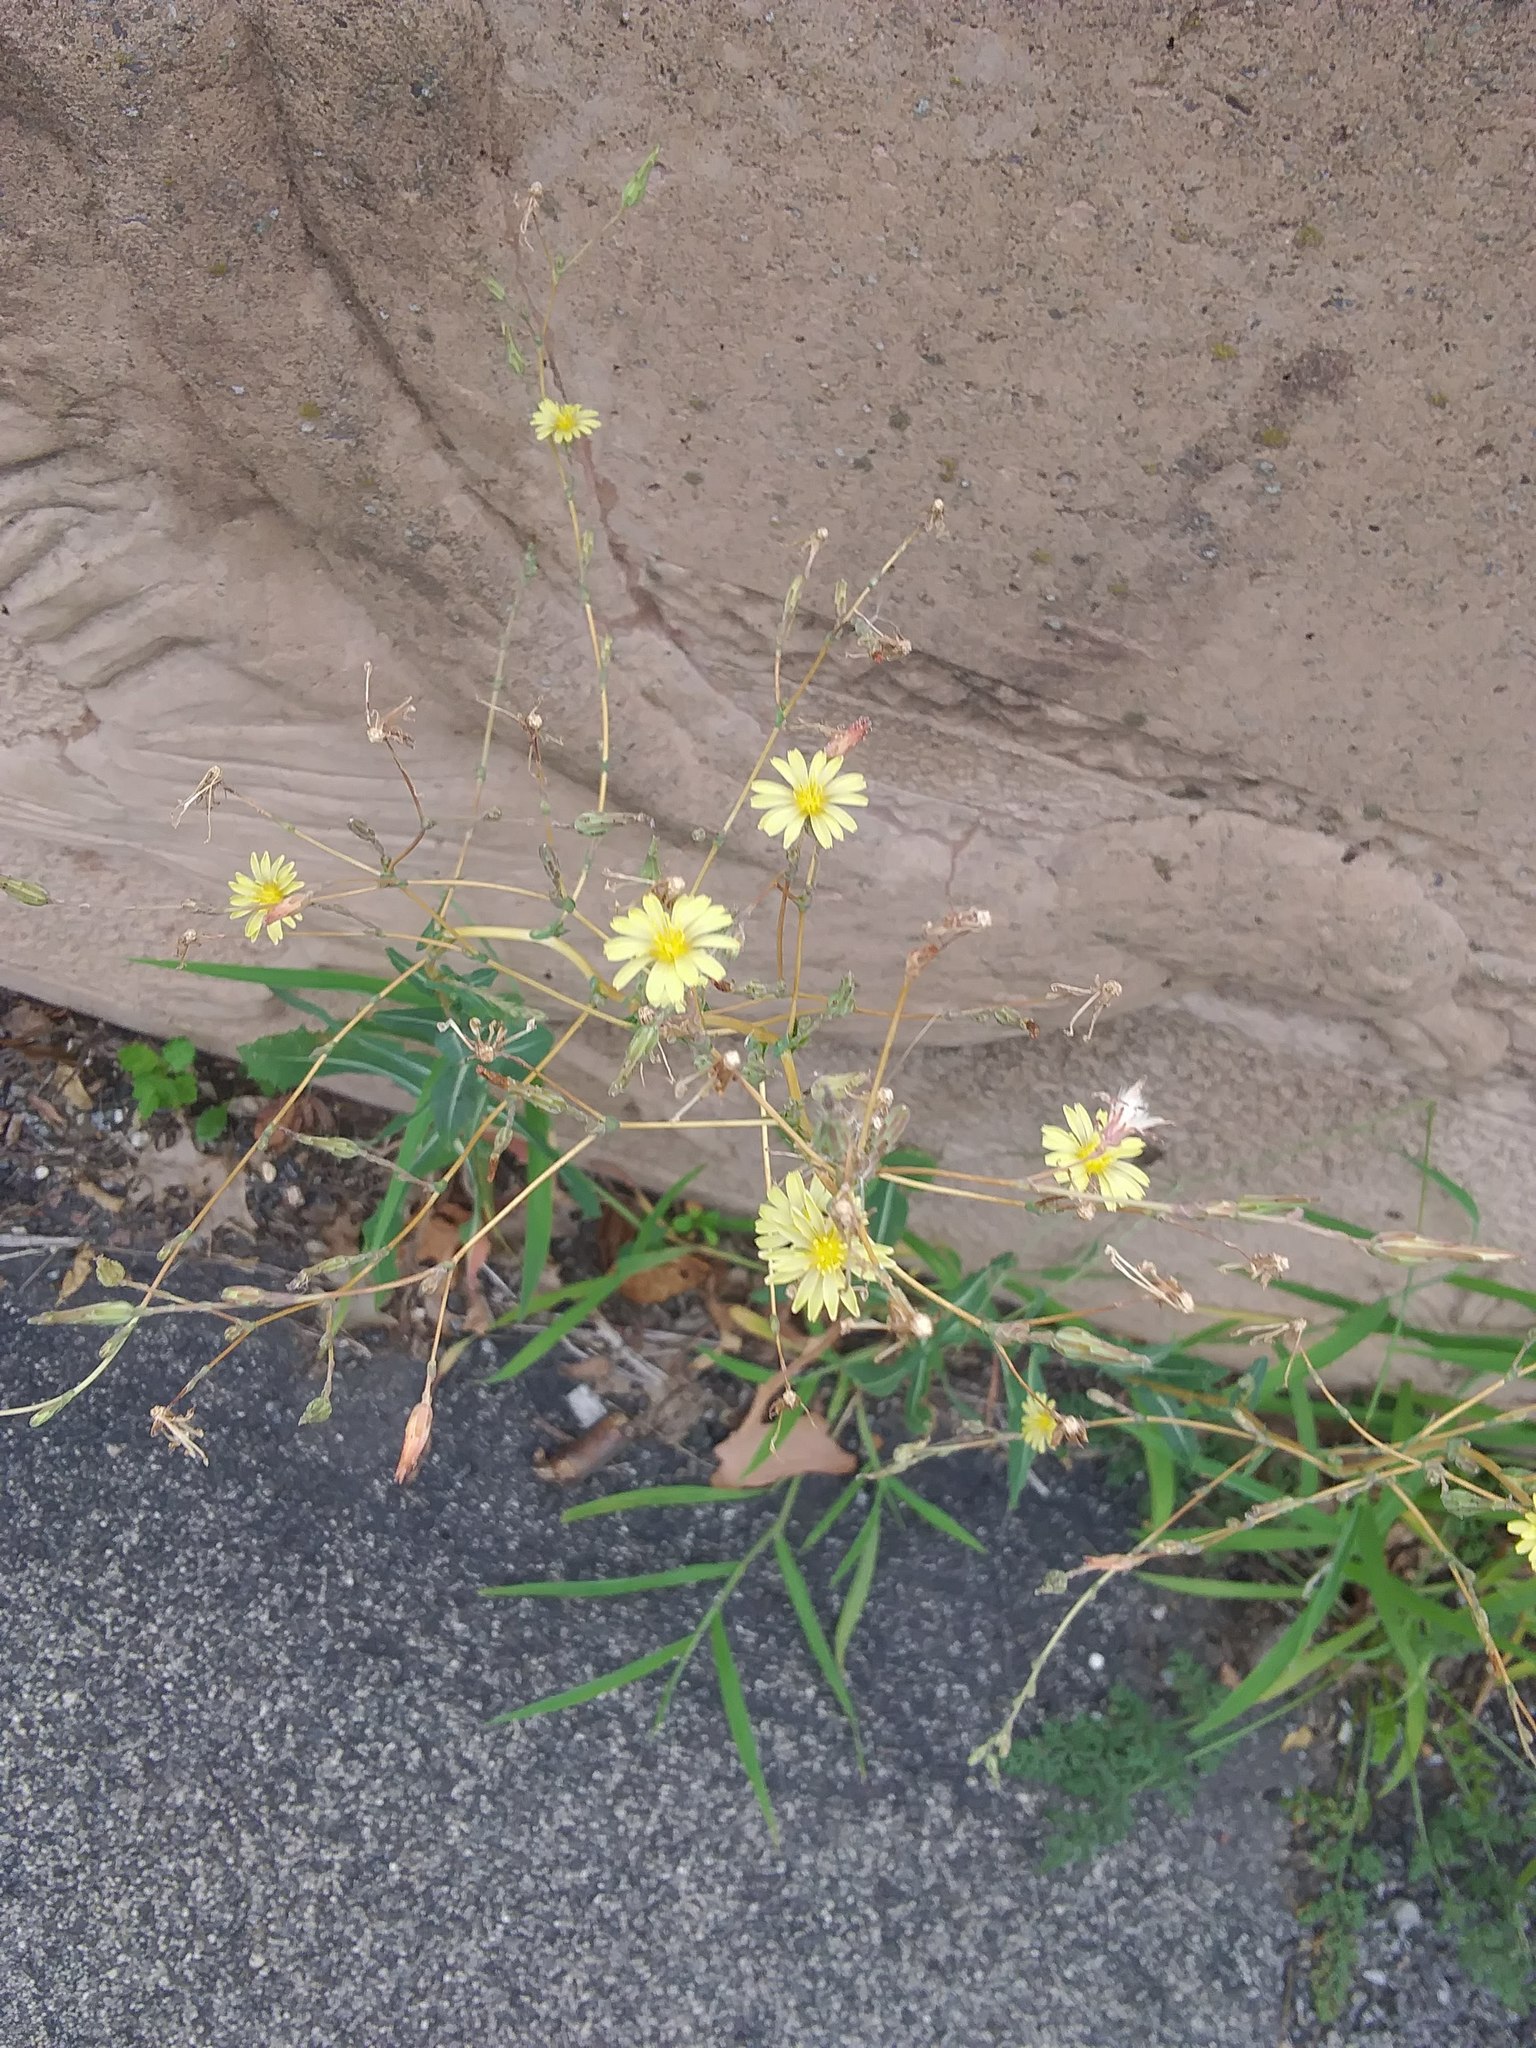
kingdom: Plantae
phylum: Tracheophyta
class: Magnoliopsida
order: Asterales
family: Asteraceae
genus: Lactuca
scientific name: Lactuca serriola
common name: Prickly lettuce
